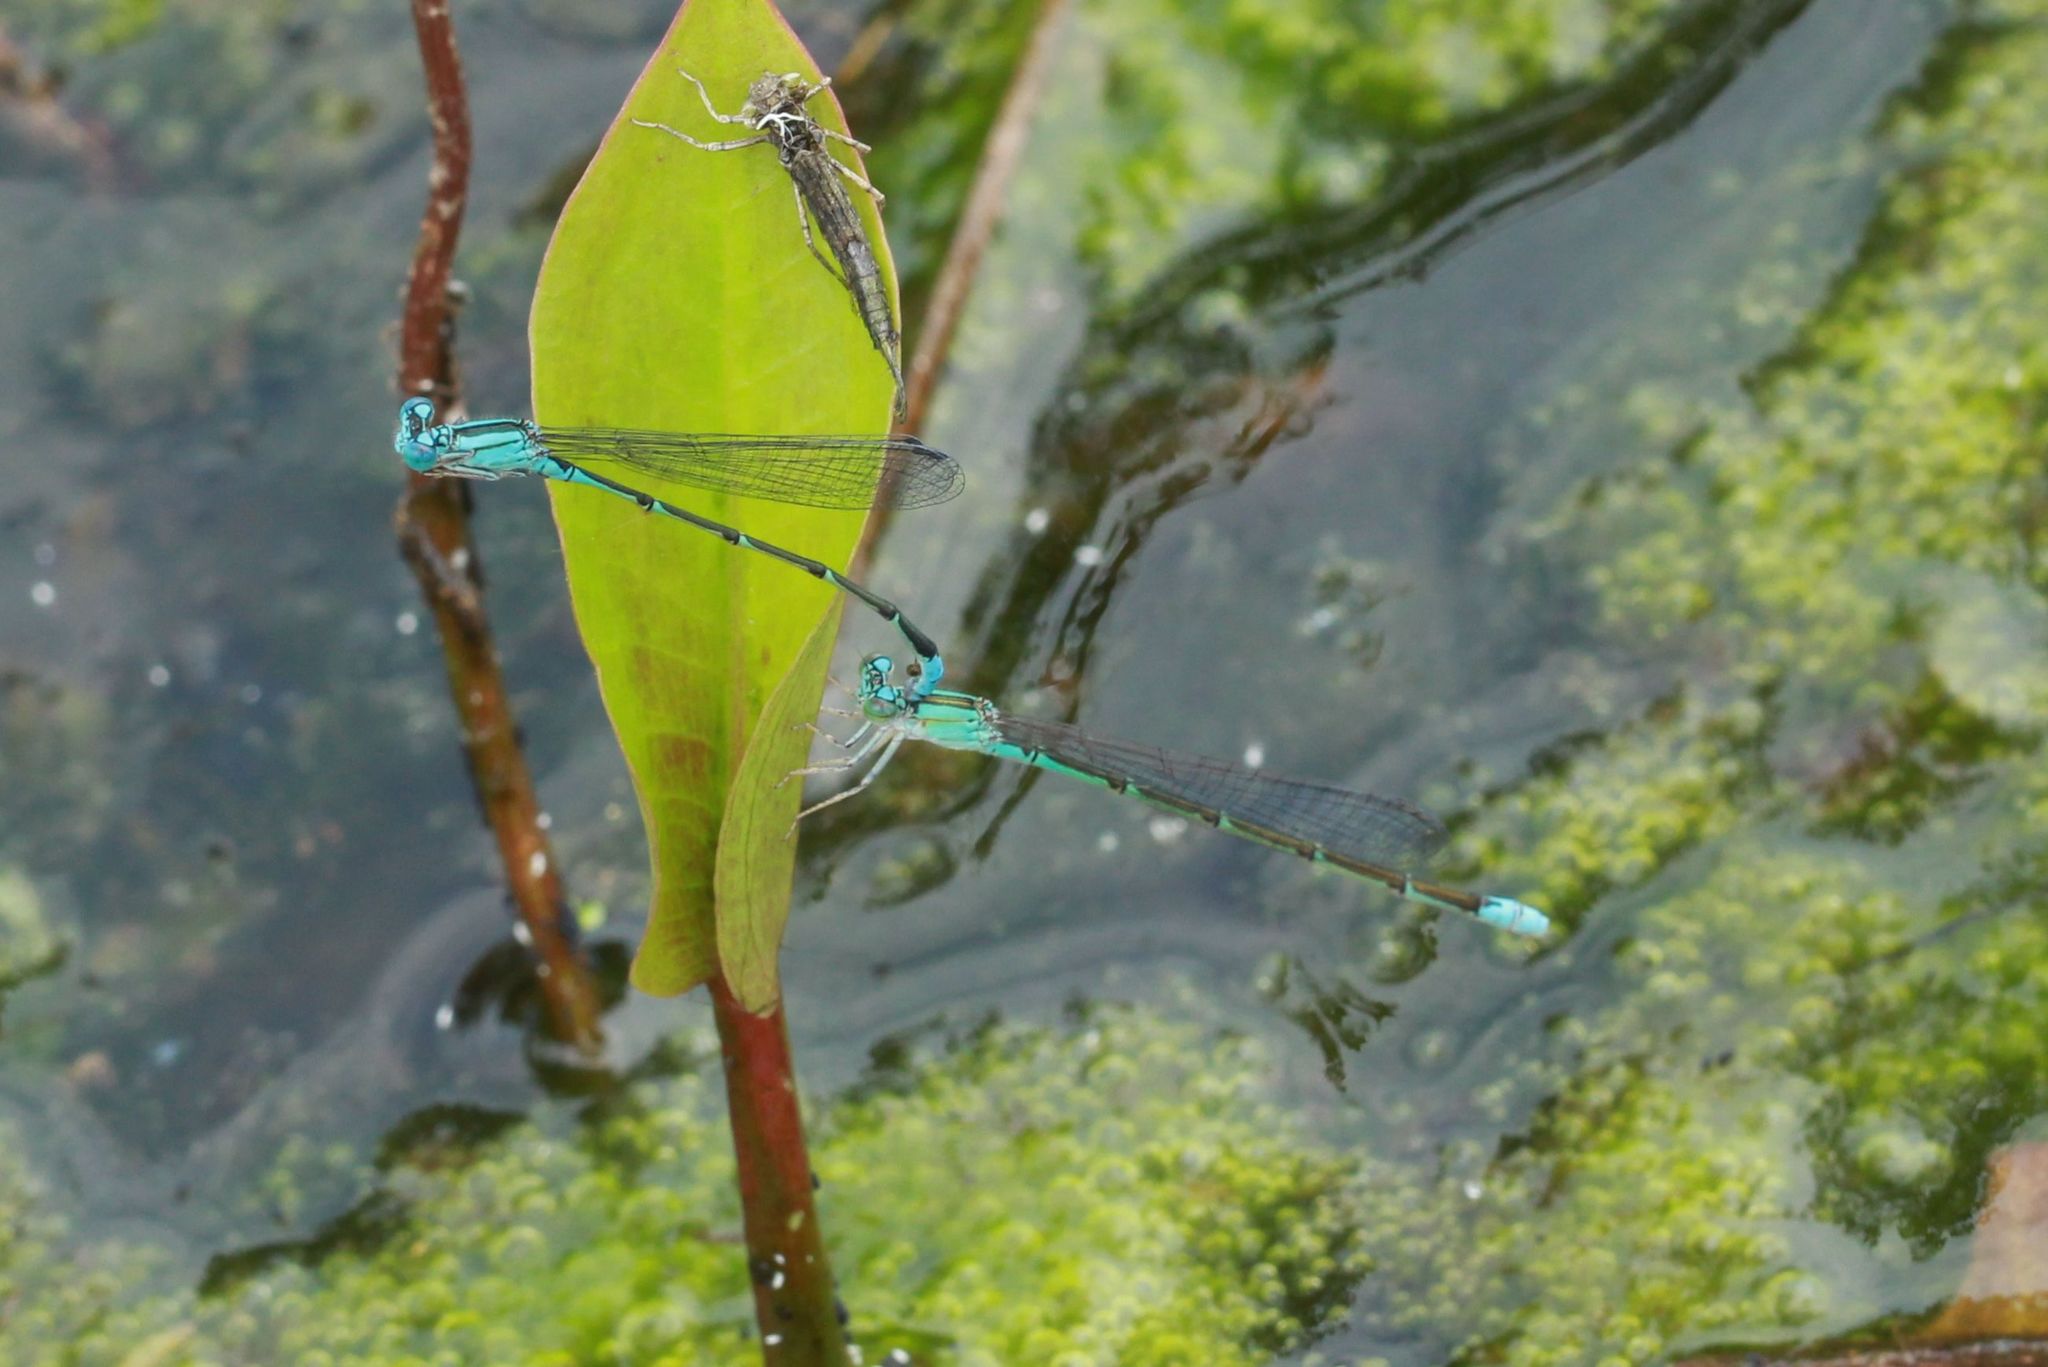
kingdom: Animalia
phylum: Arthropoda
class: Insecta
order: Odonata
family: Coenagrionidae
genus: Enallagma
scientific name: Enallagma traviatum
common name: Slender bluet
